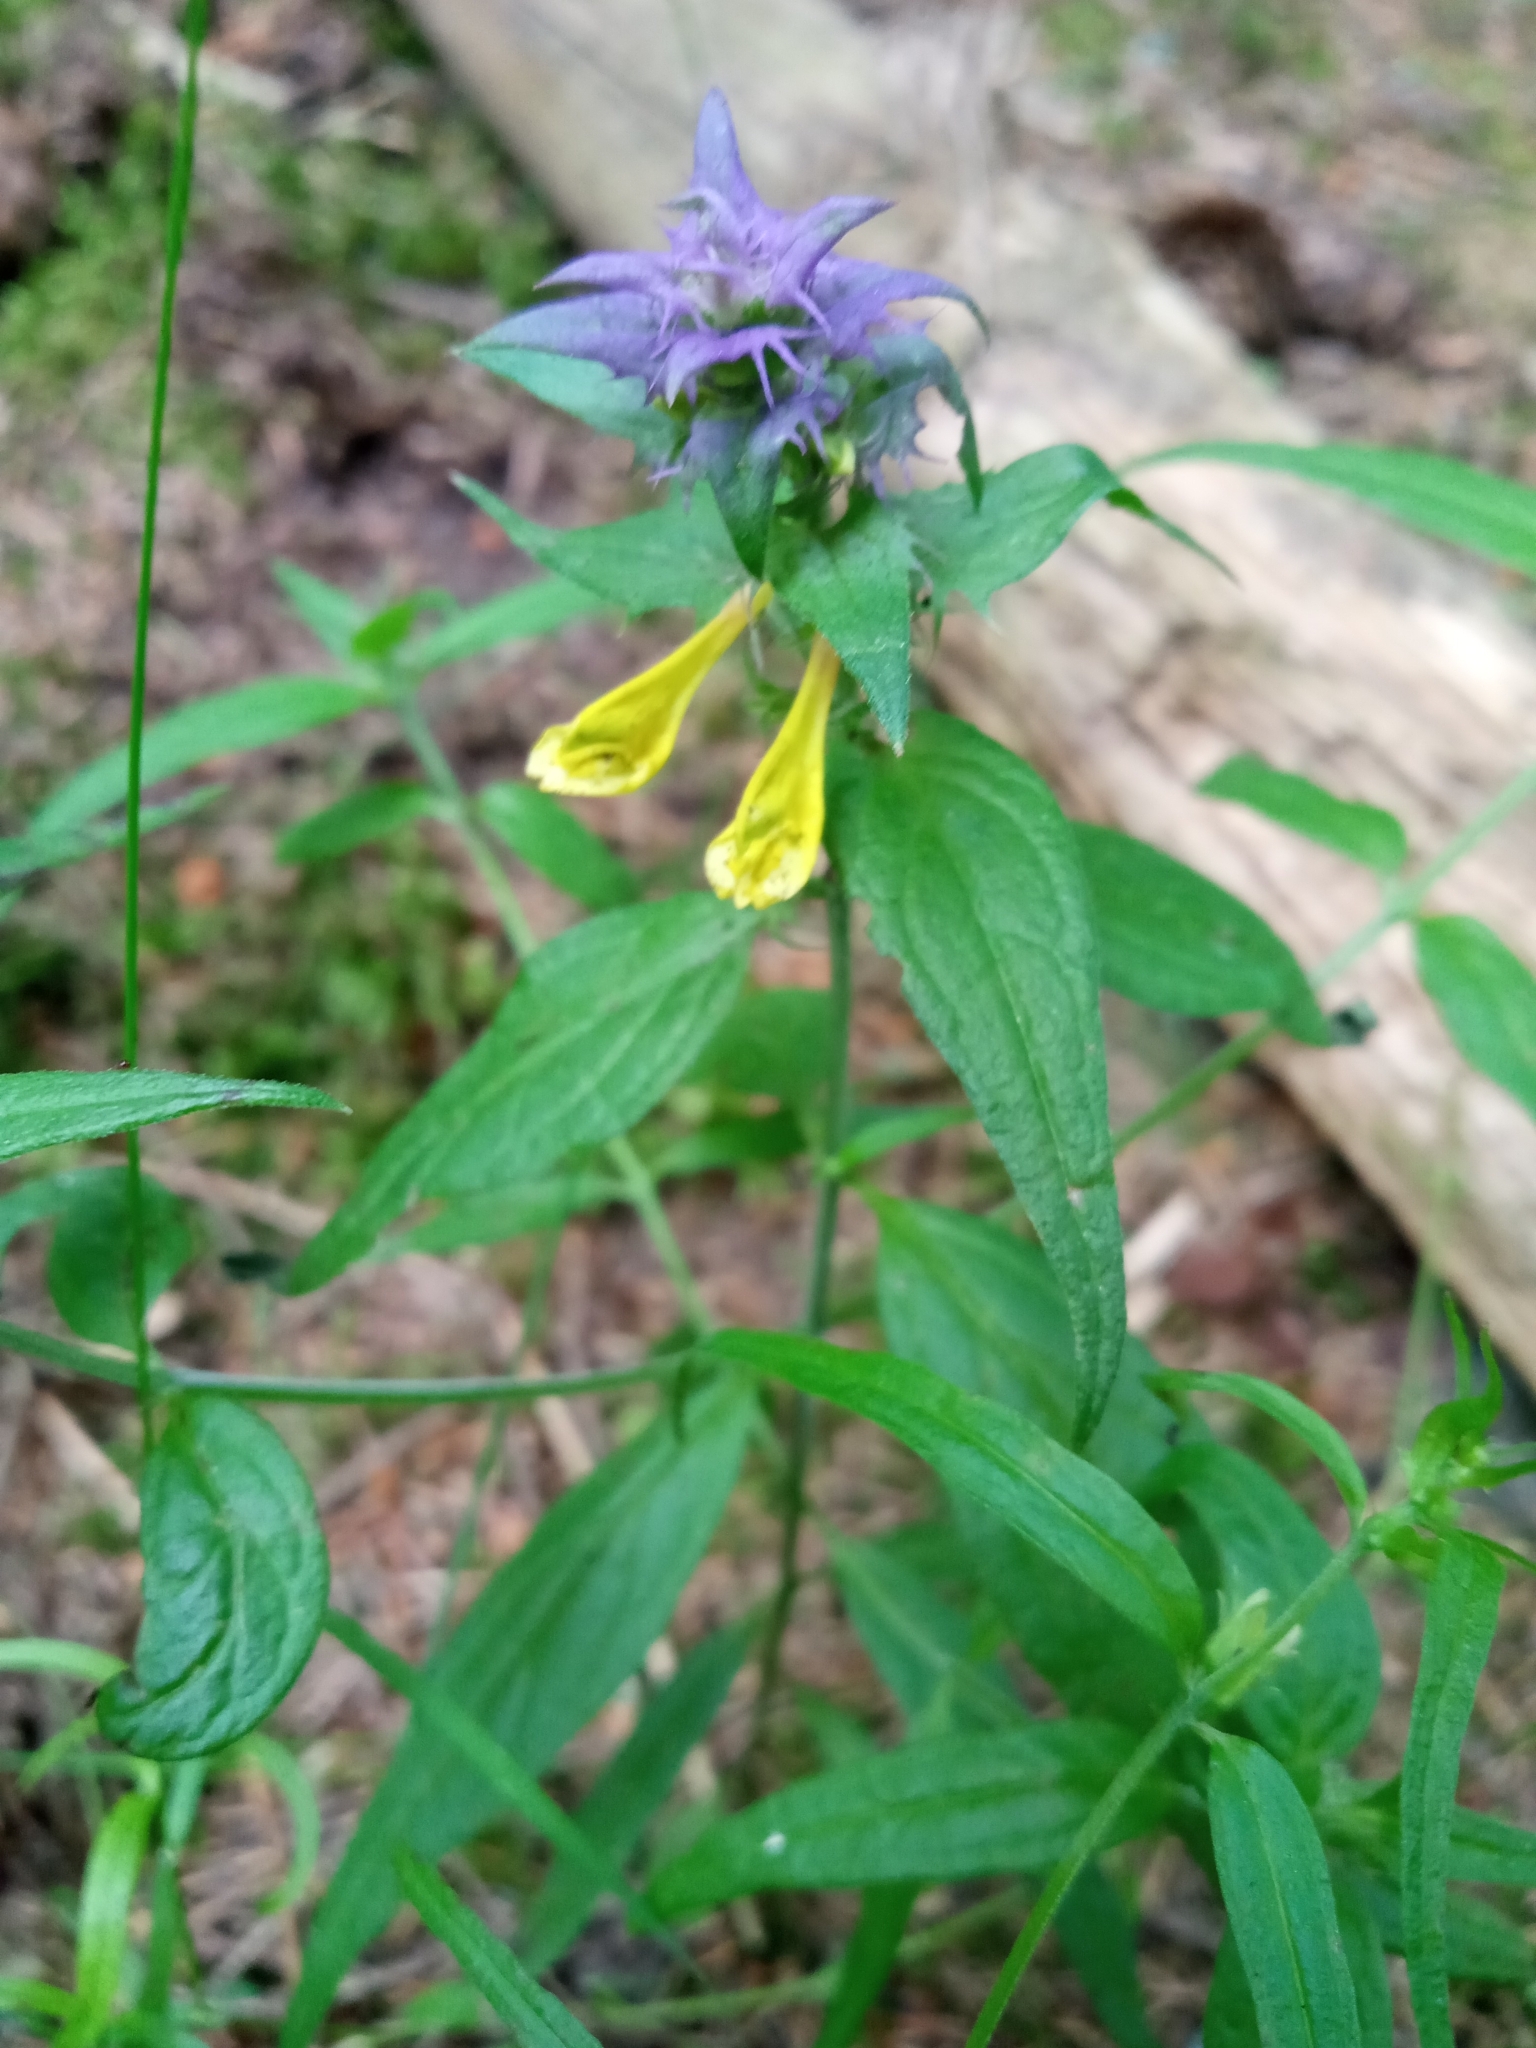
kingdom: Plantae
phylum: Tracheophyta
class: Magnoliopsida
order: Lamiales
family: Orobanchaceae
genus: Melampyrum
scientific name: Melampyrum nemorosum
